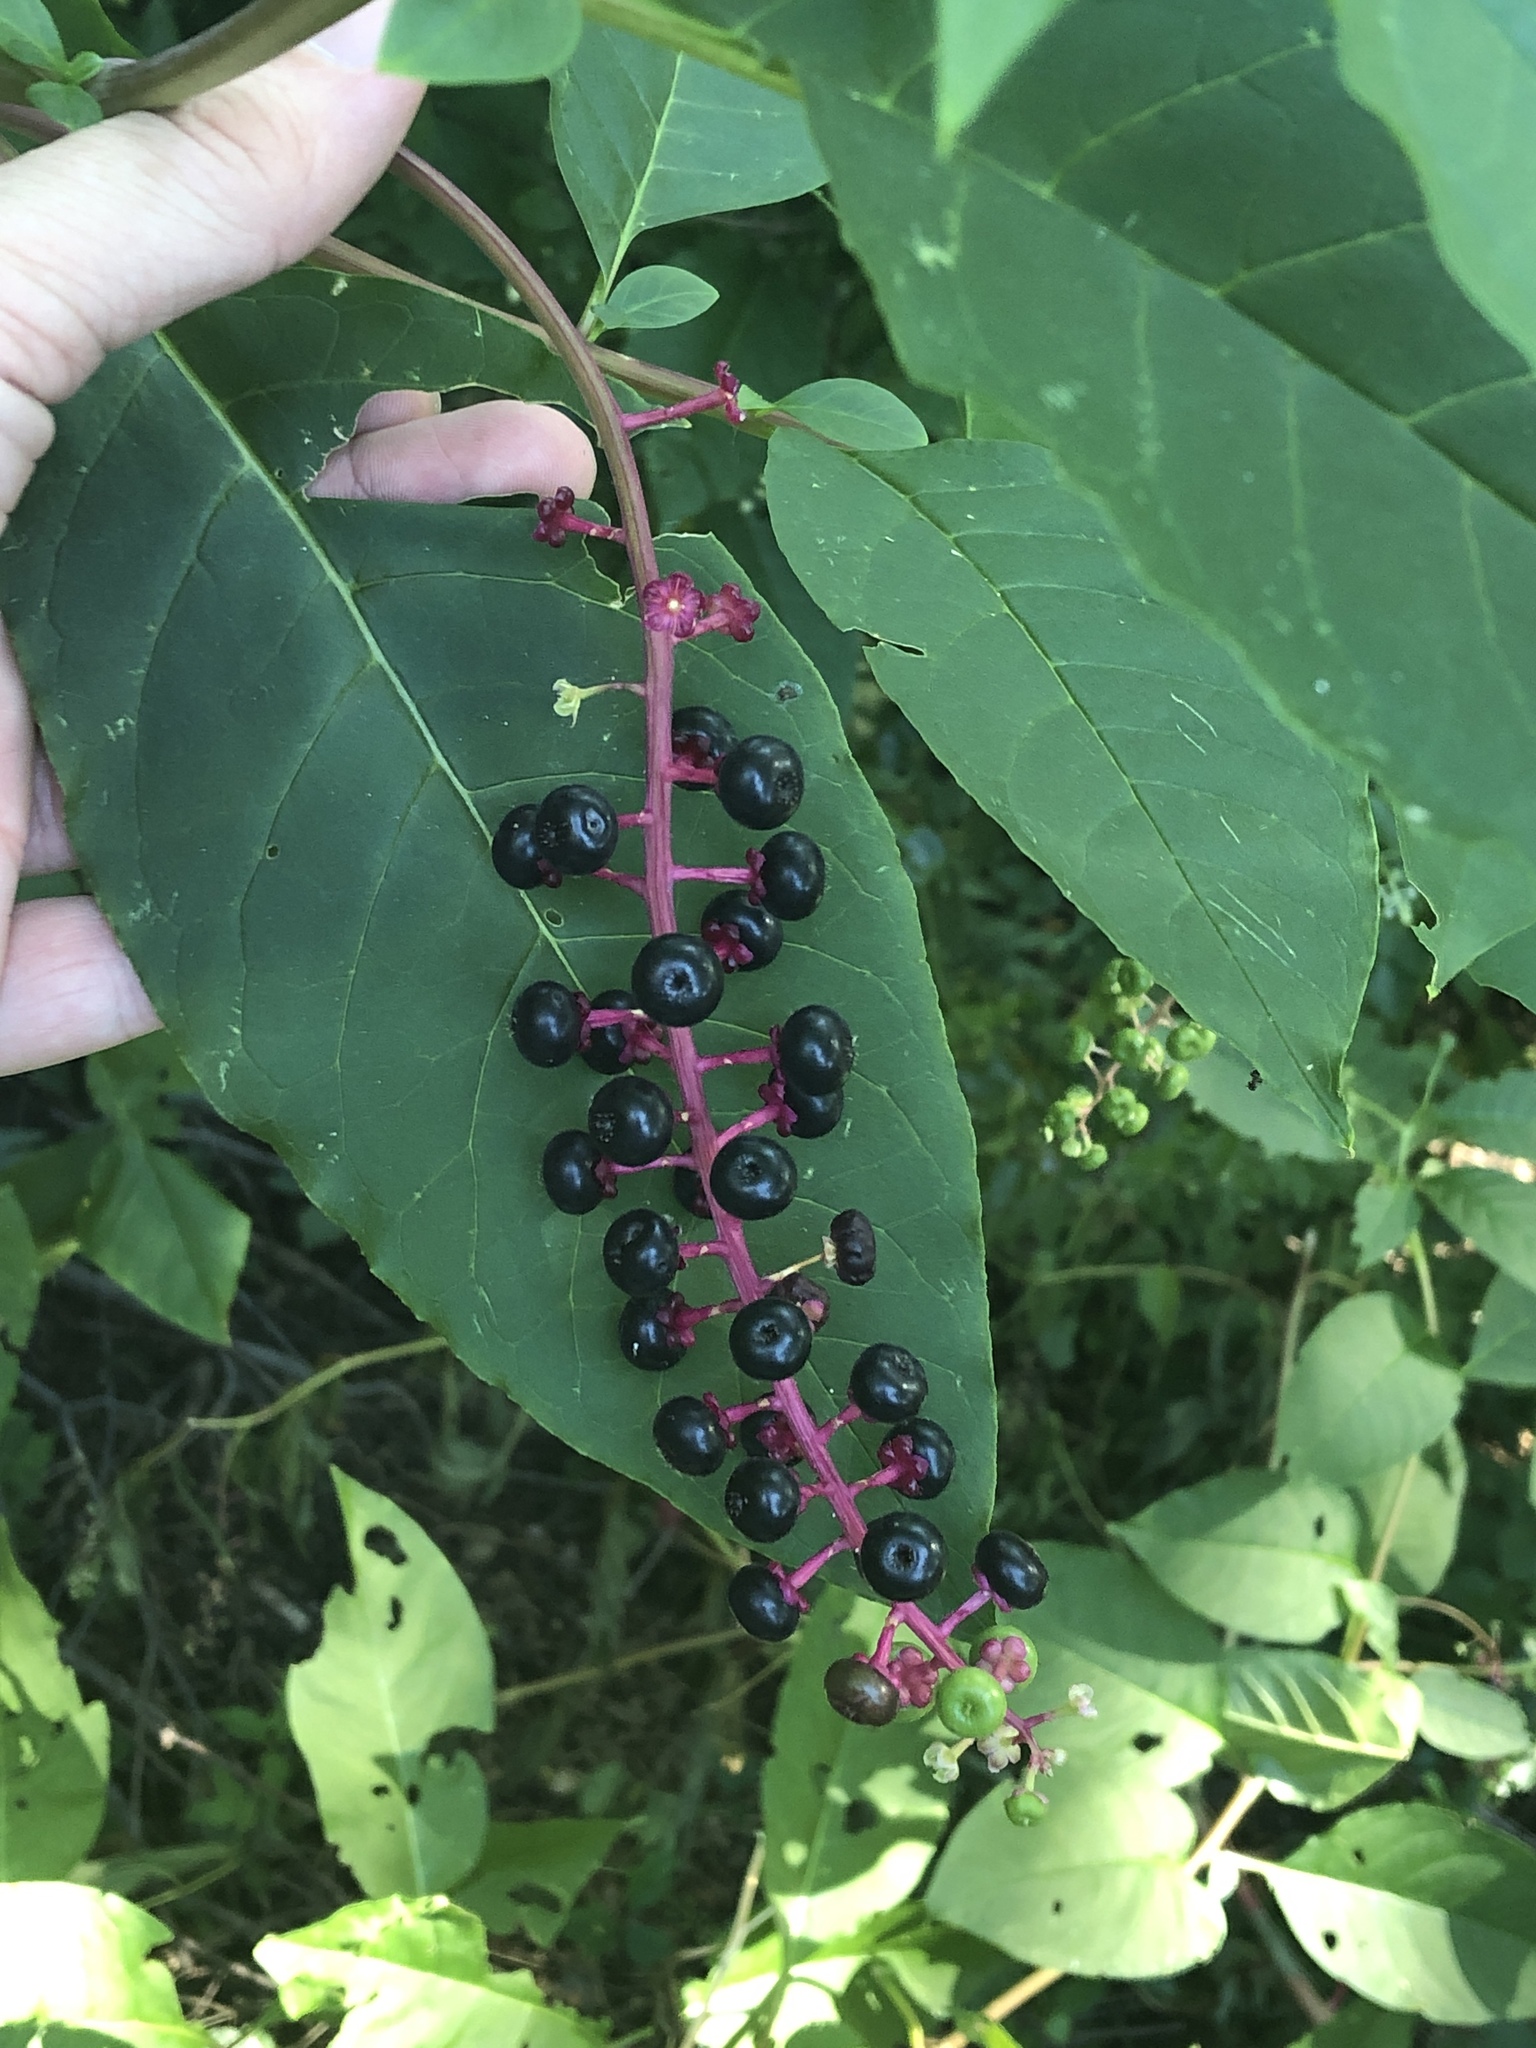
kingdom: Plantae
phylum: Tracheophyta
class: Magnoliopsida
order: Caryophyllales
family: Phytolaccaceae
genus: Phytolacca
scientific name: Phytolacca americana
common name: American pokeweed
